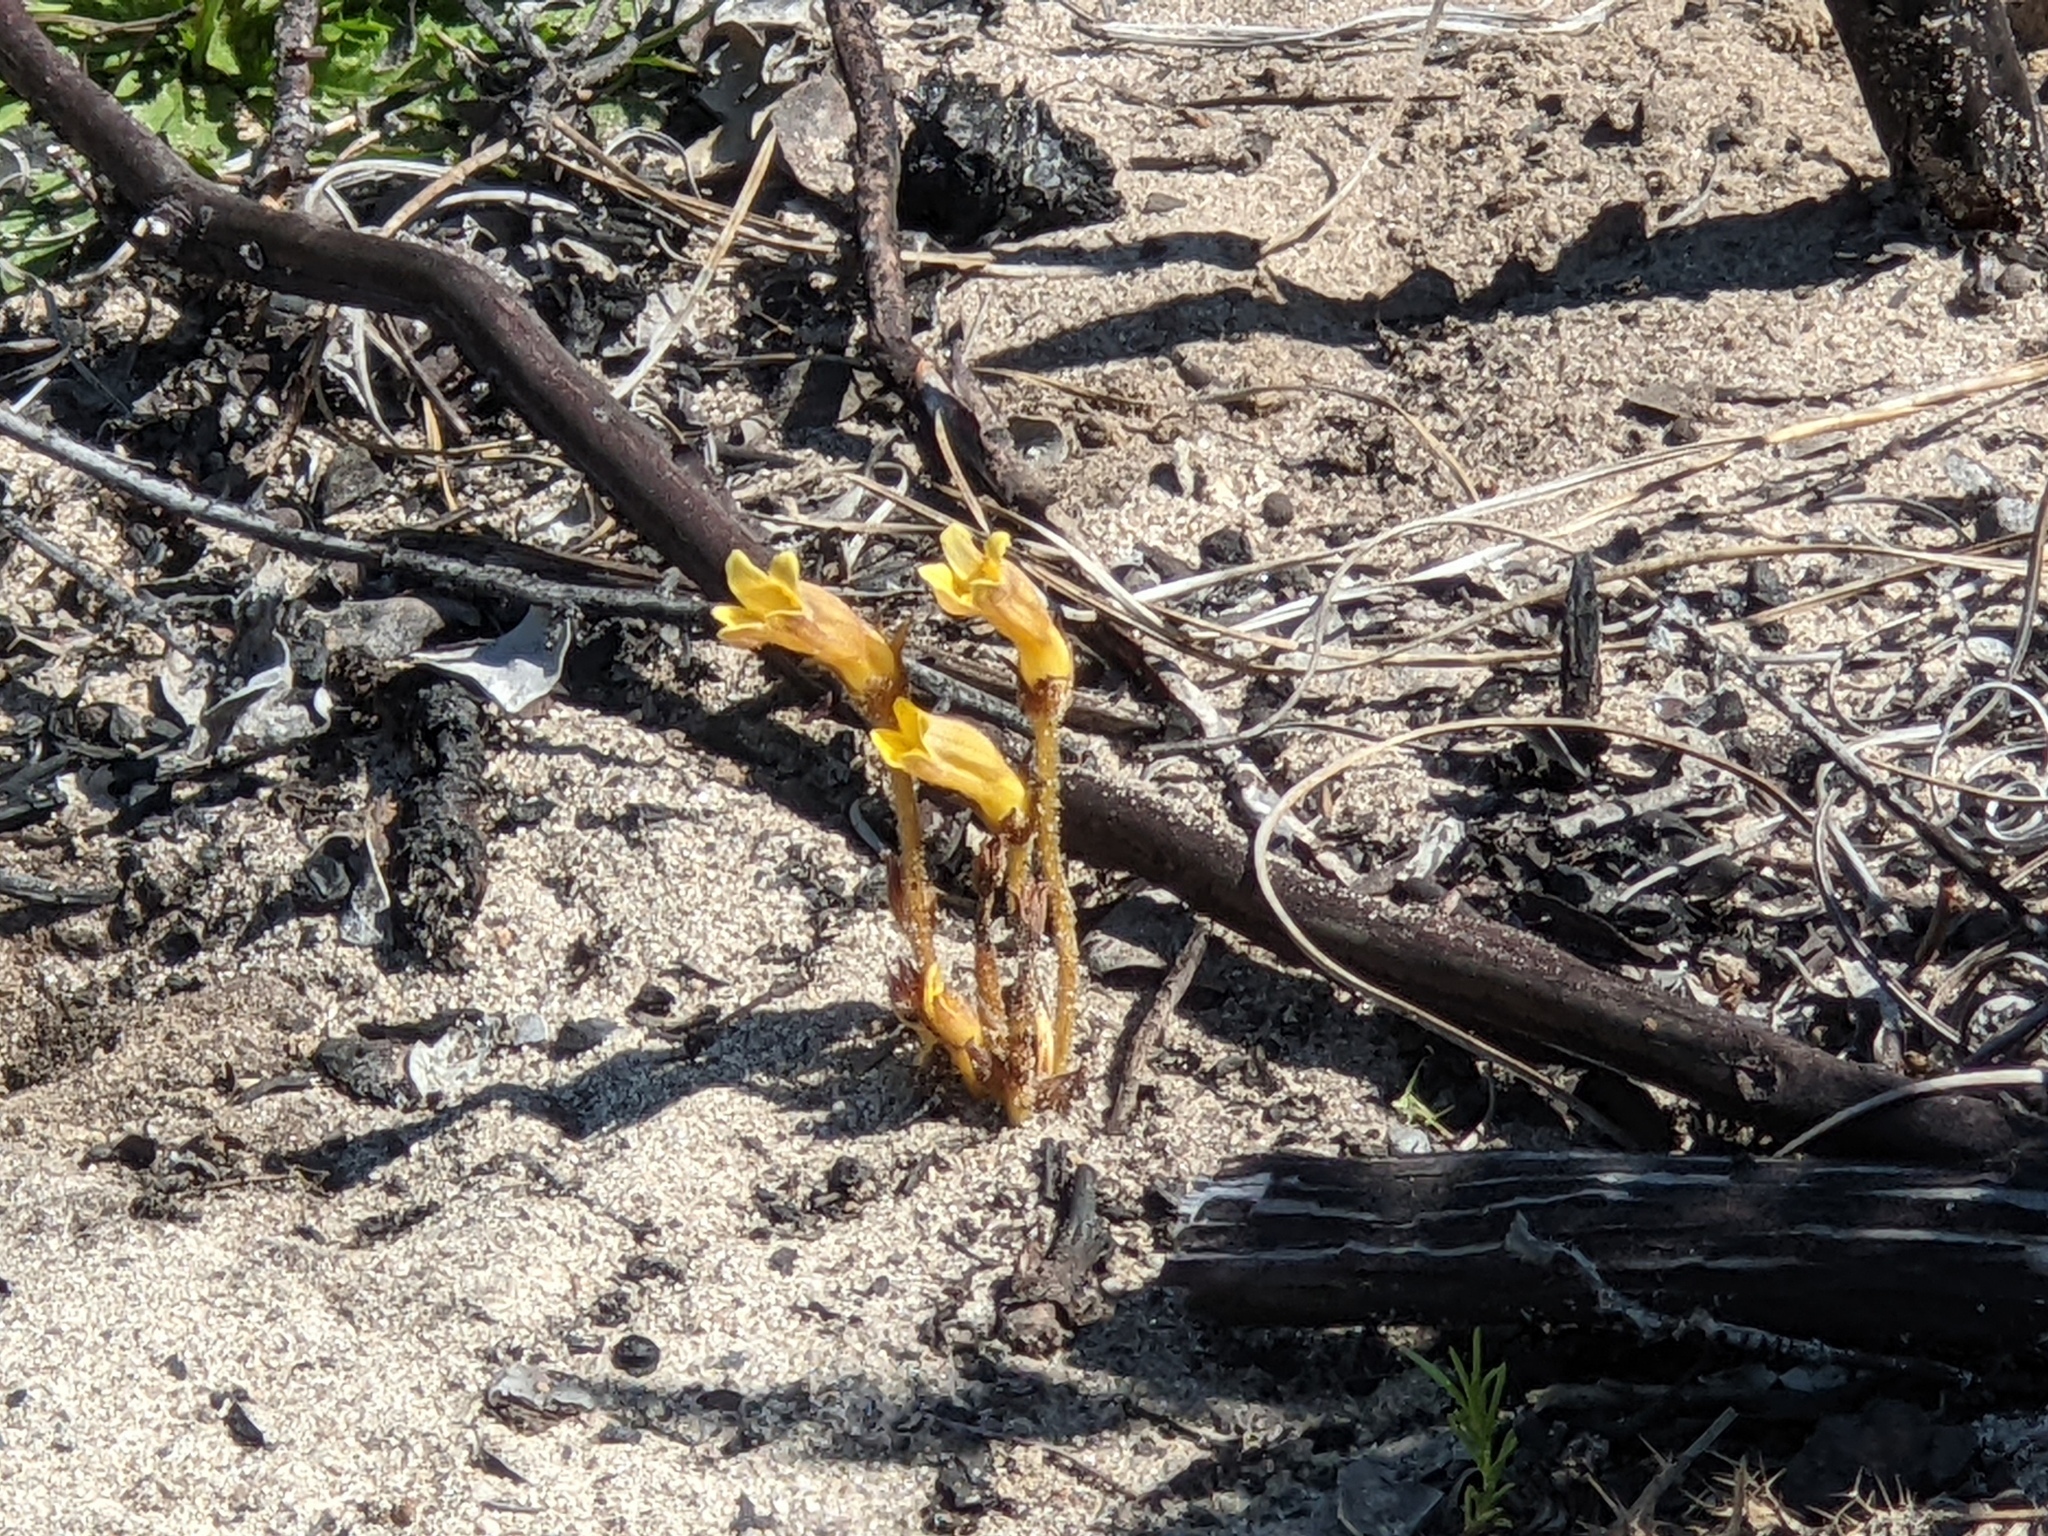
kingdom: Plantae
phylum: Tracheophyta
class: Magnoliopsida
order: Lamiales
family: Orobanchaceae
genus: Aphyllon
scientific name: Aphyllon franciscanum
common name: San francisco broomrape
